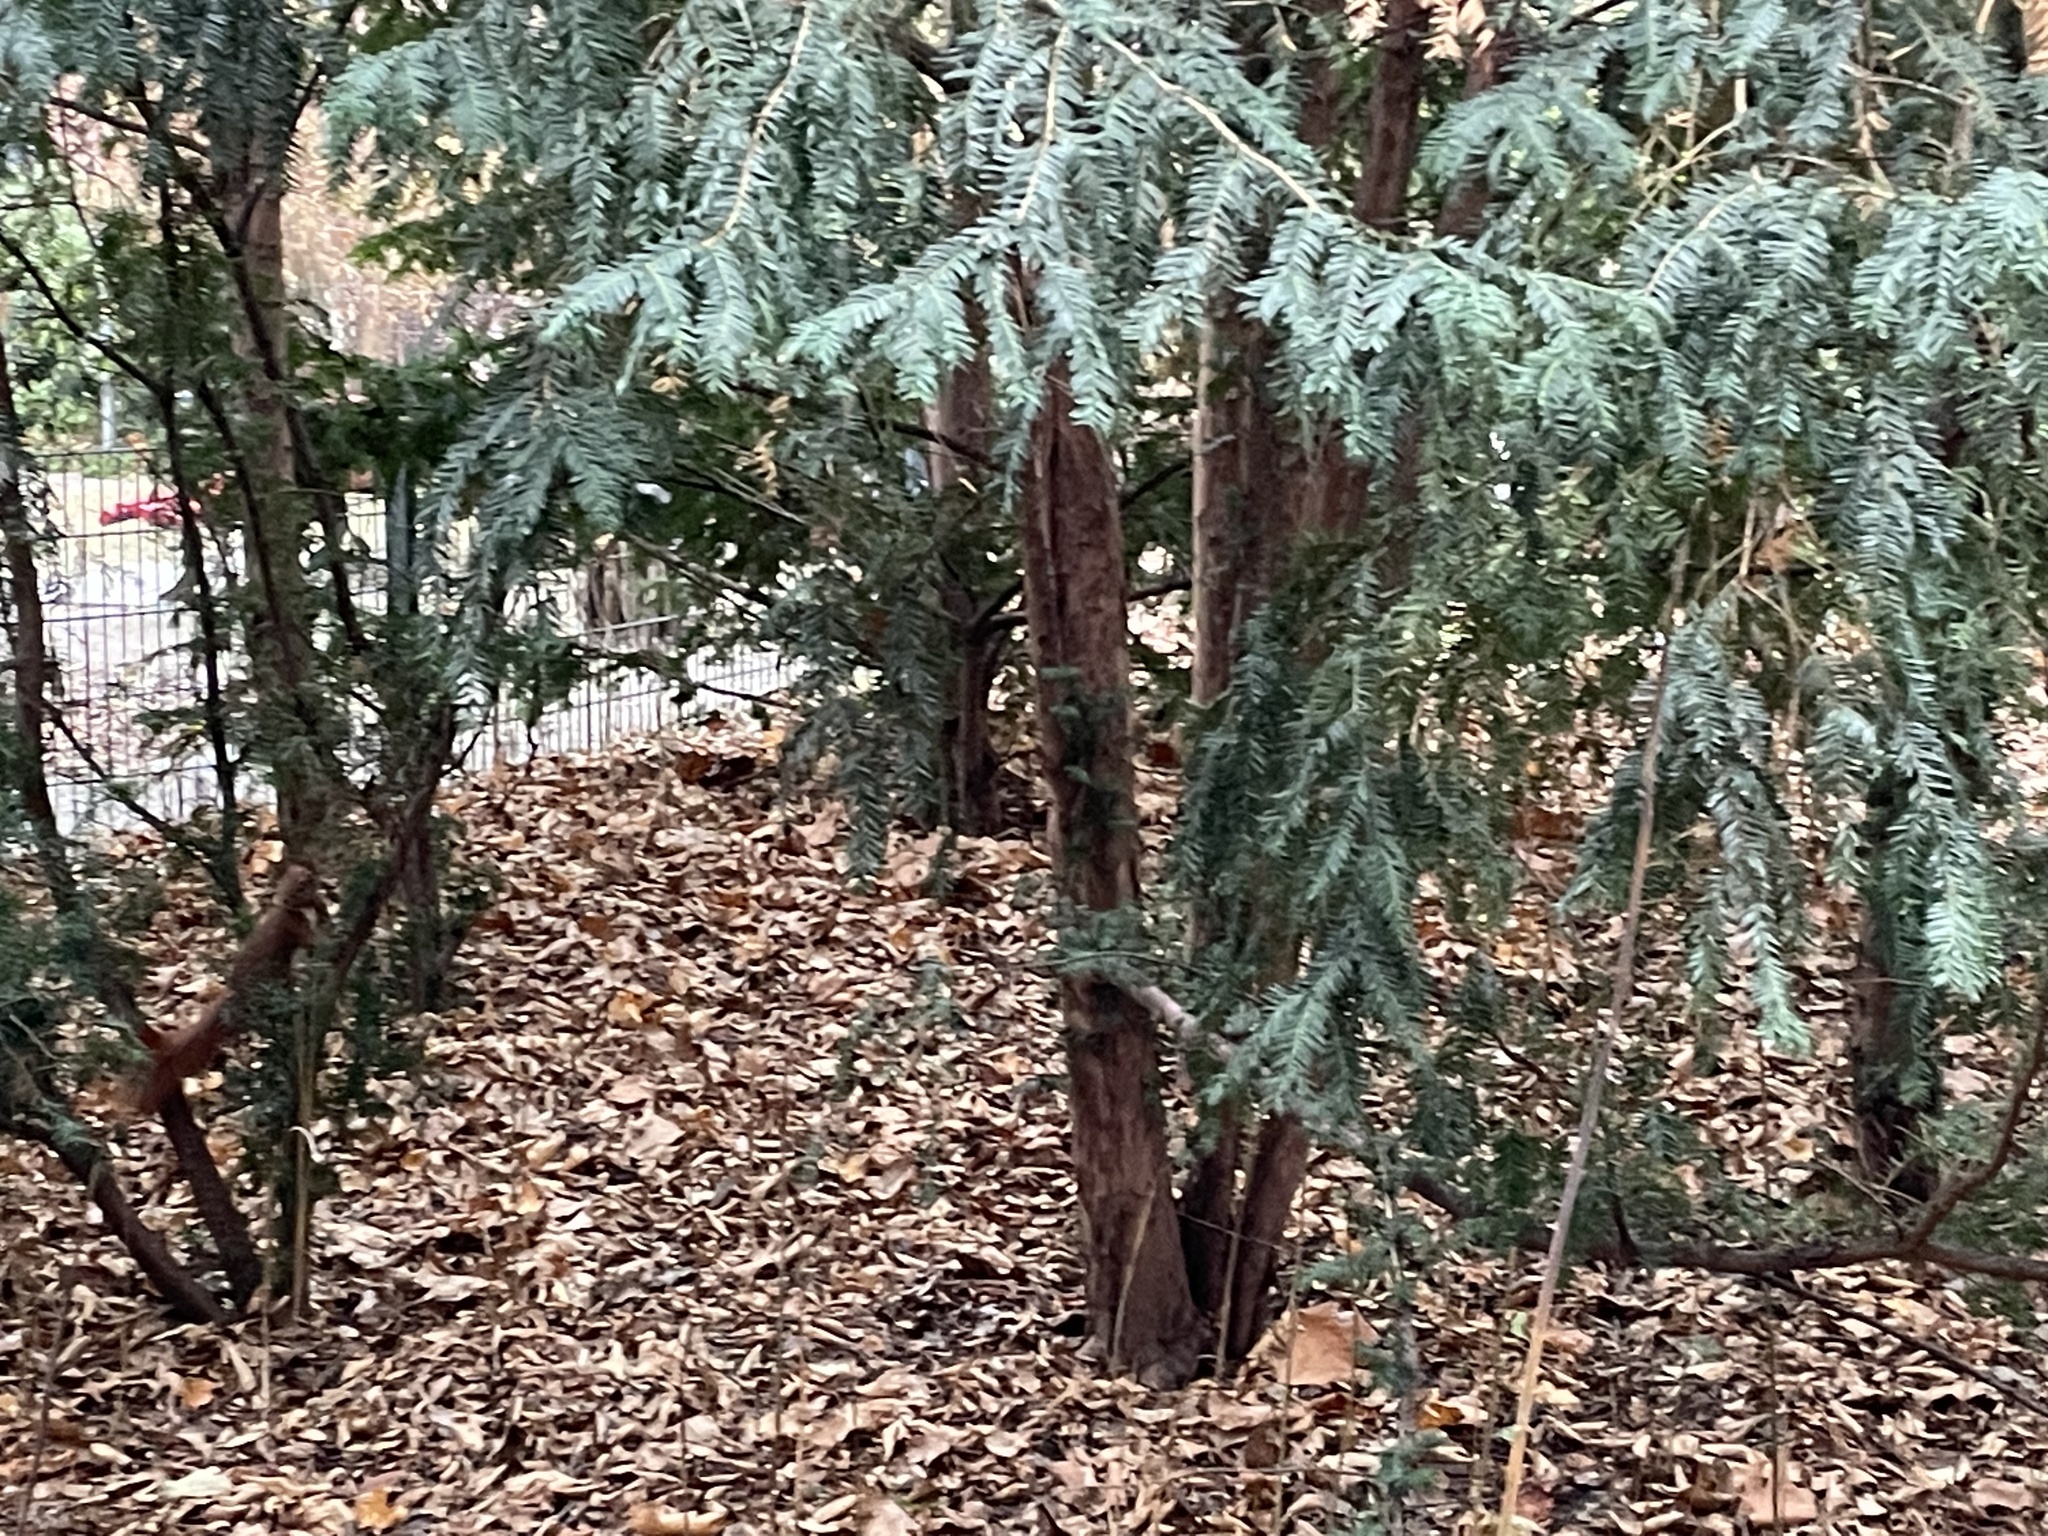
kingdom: Animalia
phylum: Chordata
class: Mammalia
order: Rodentia
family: Sciuridae
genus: Sciurus
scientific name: Sciurus vulgaris
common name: Eurasian red squirrel
